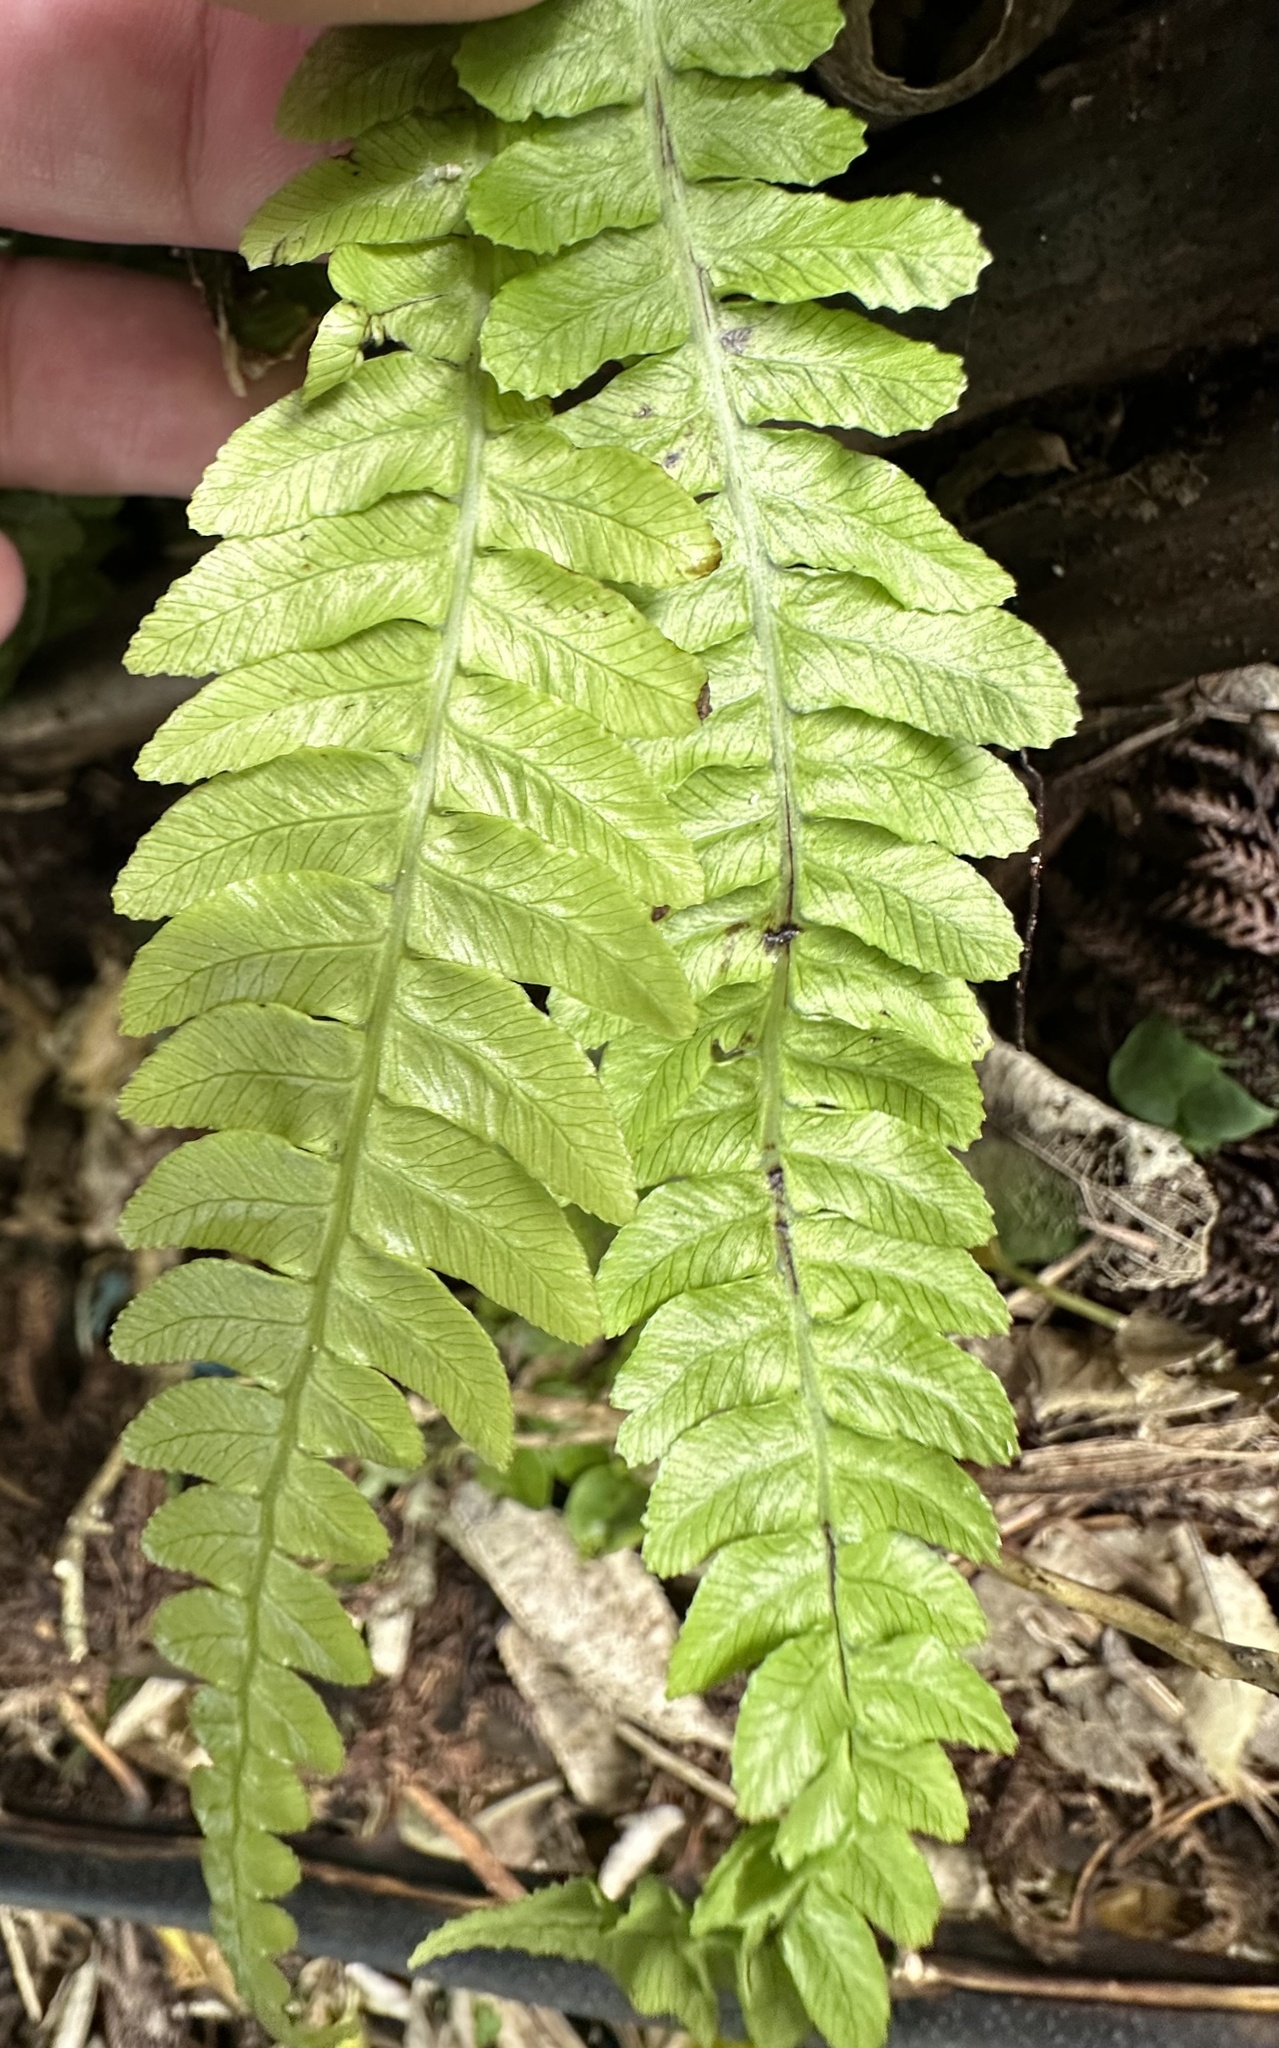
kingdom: Plantae
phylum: Tracheophyta
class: Polypodiopsida
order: Polypodiales
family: Blechnaceae
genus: Austroblechnum
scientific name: Austroblechnum lanceolatum
